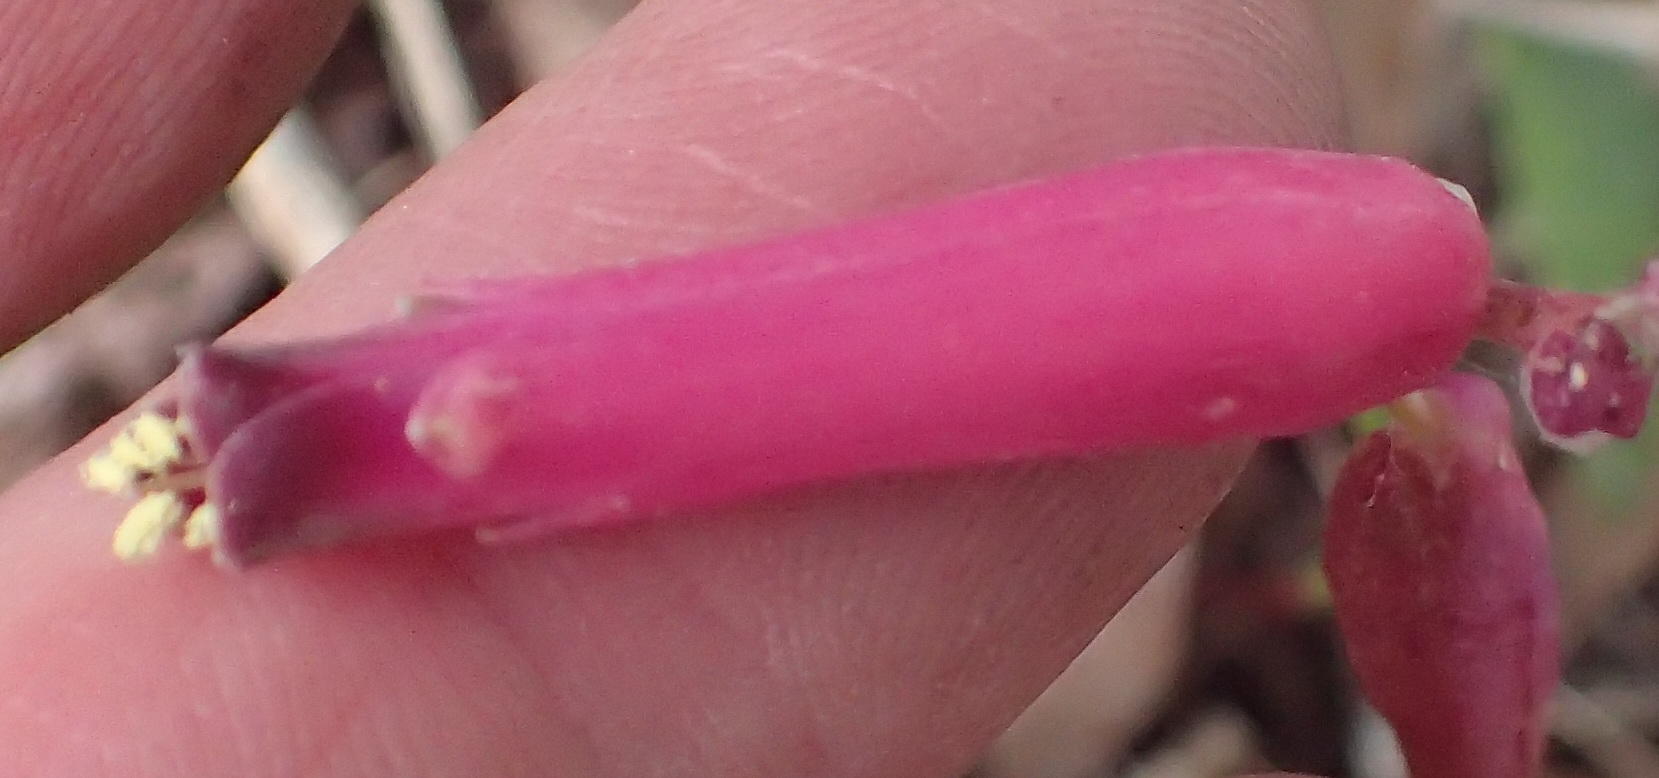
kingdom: Plantae
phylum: Tracheophyta
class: Liliopsida
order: Asparagales
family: Asparagaceae
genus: Lachenalia
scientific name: Lachenalia punctata
